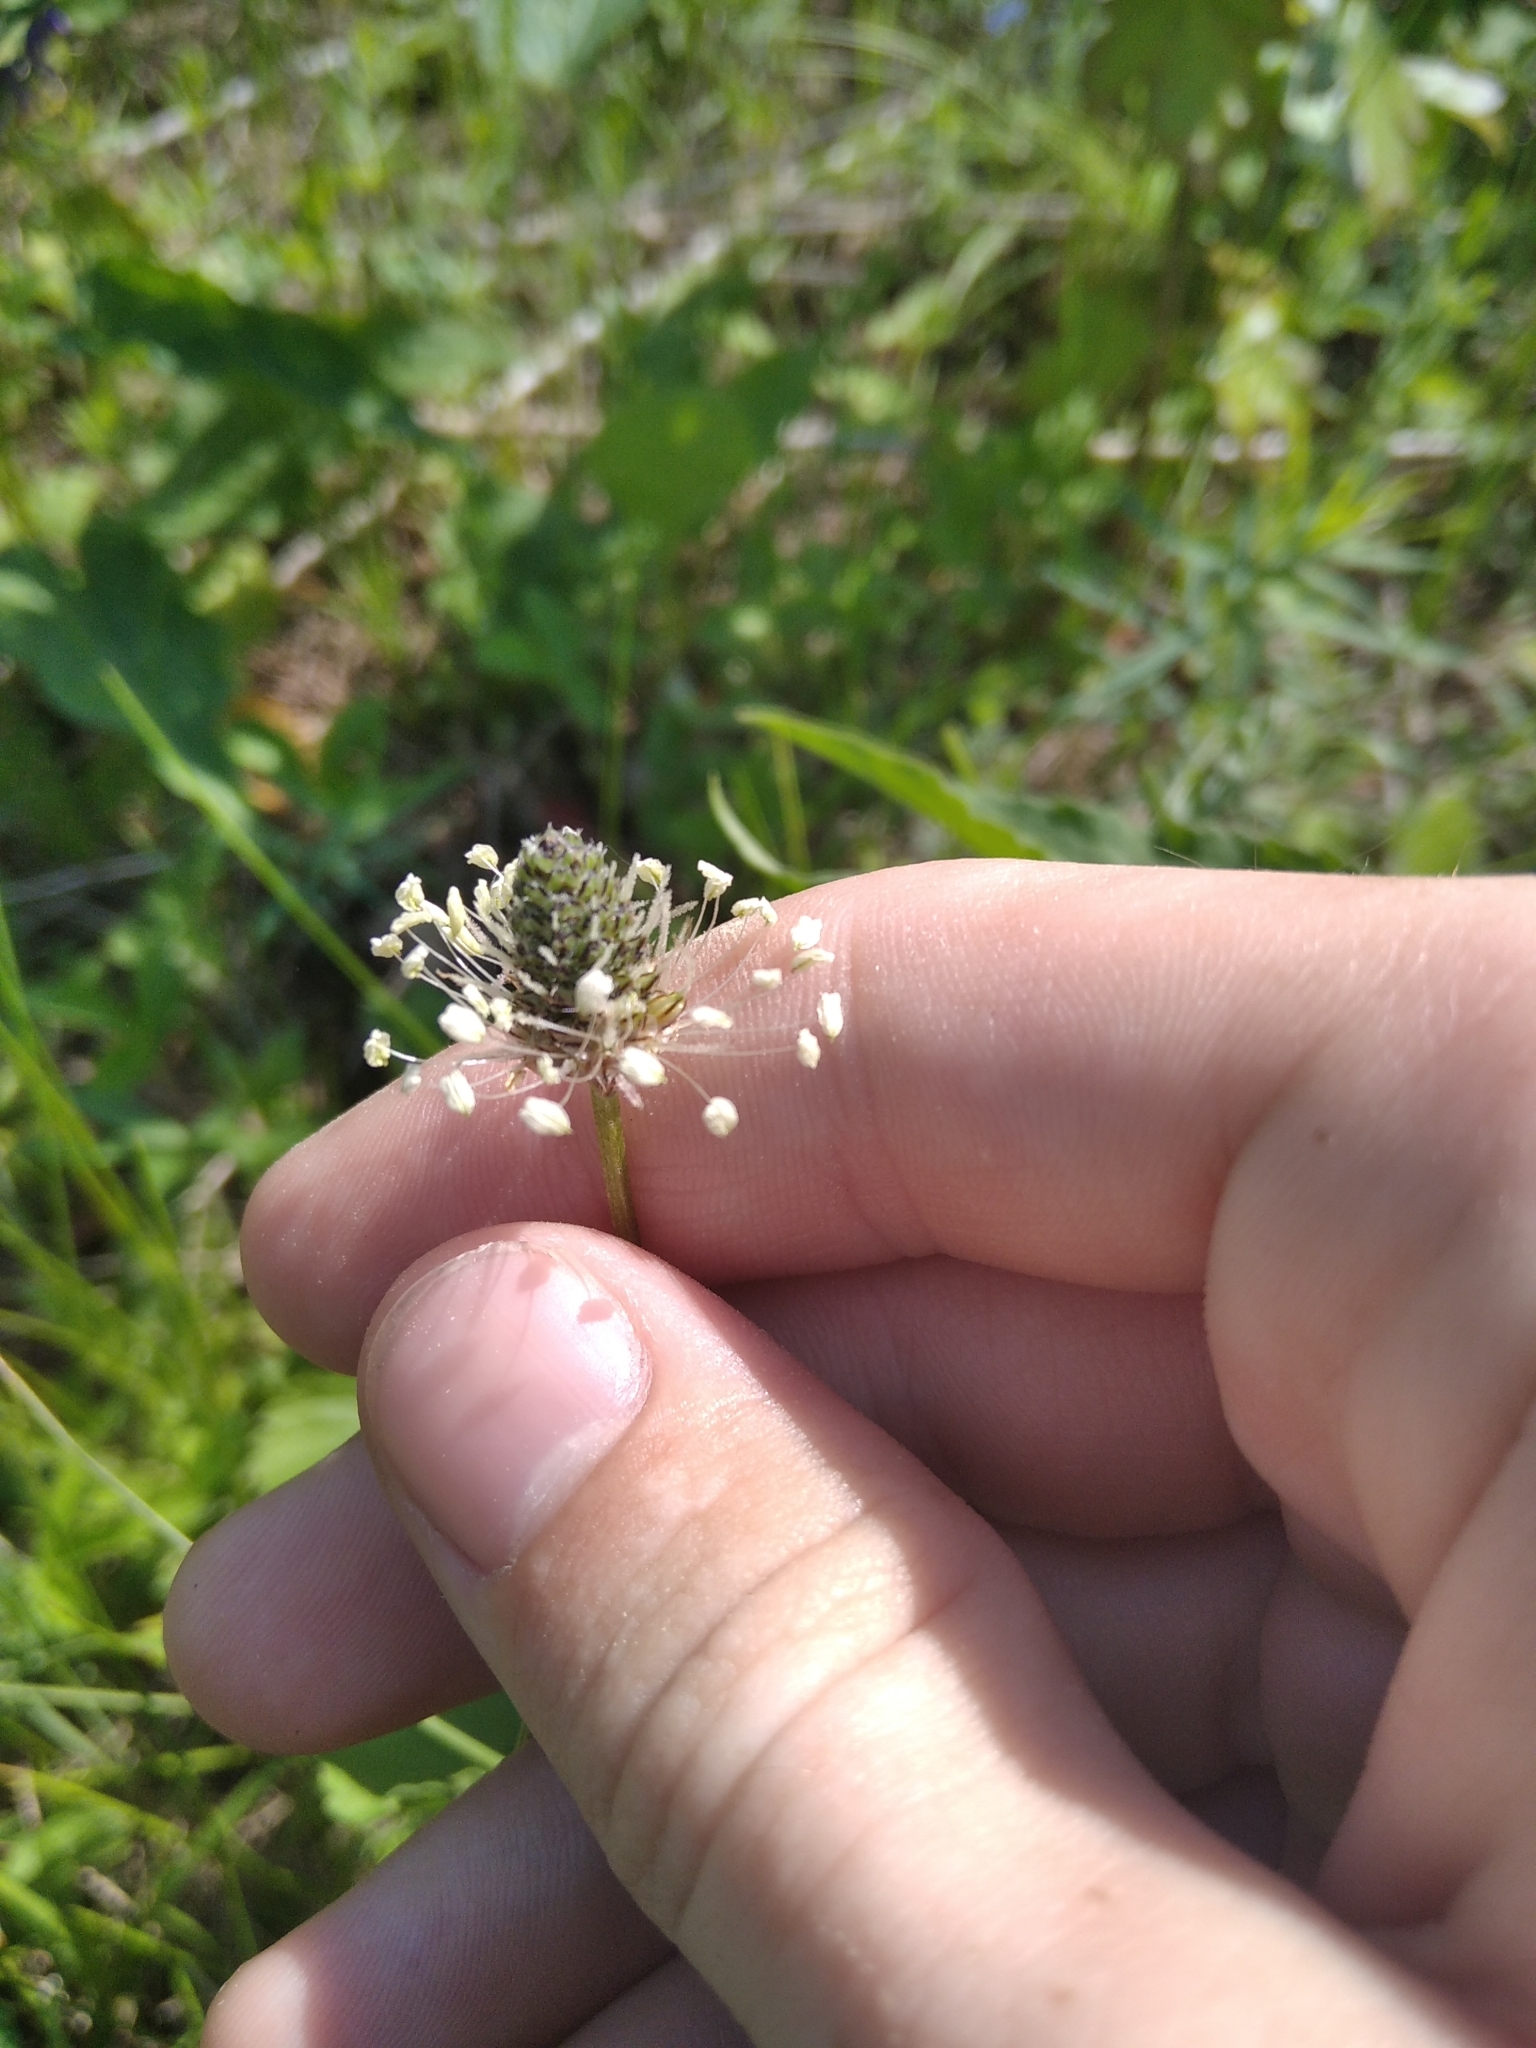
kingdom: Plantae
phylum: Tracheophyta
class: Magnoliopsida
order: Lamiales
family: Plantaginaceae
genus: Plantago
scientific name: Plantago lanceolata
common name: Ribwort plantain
